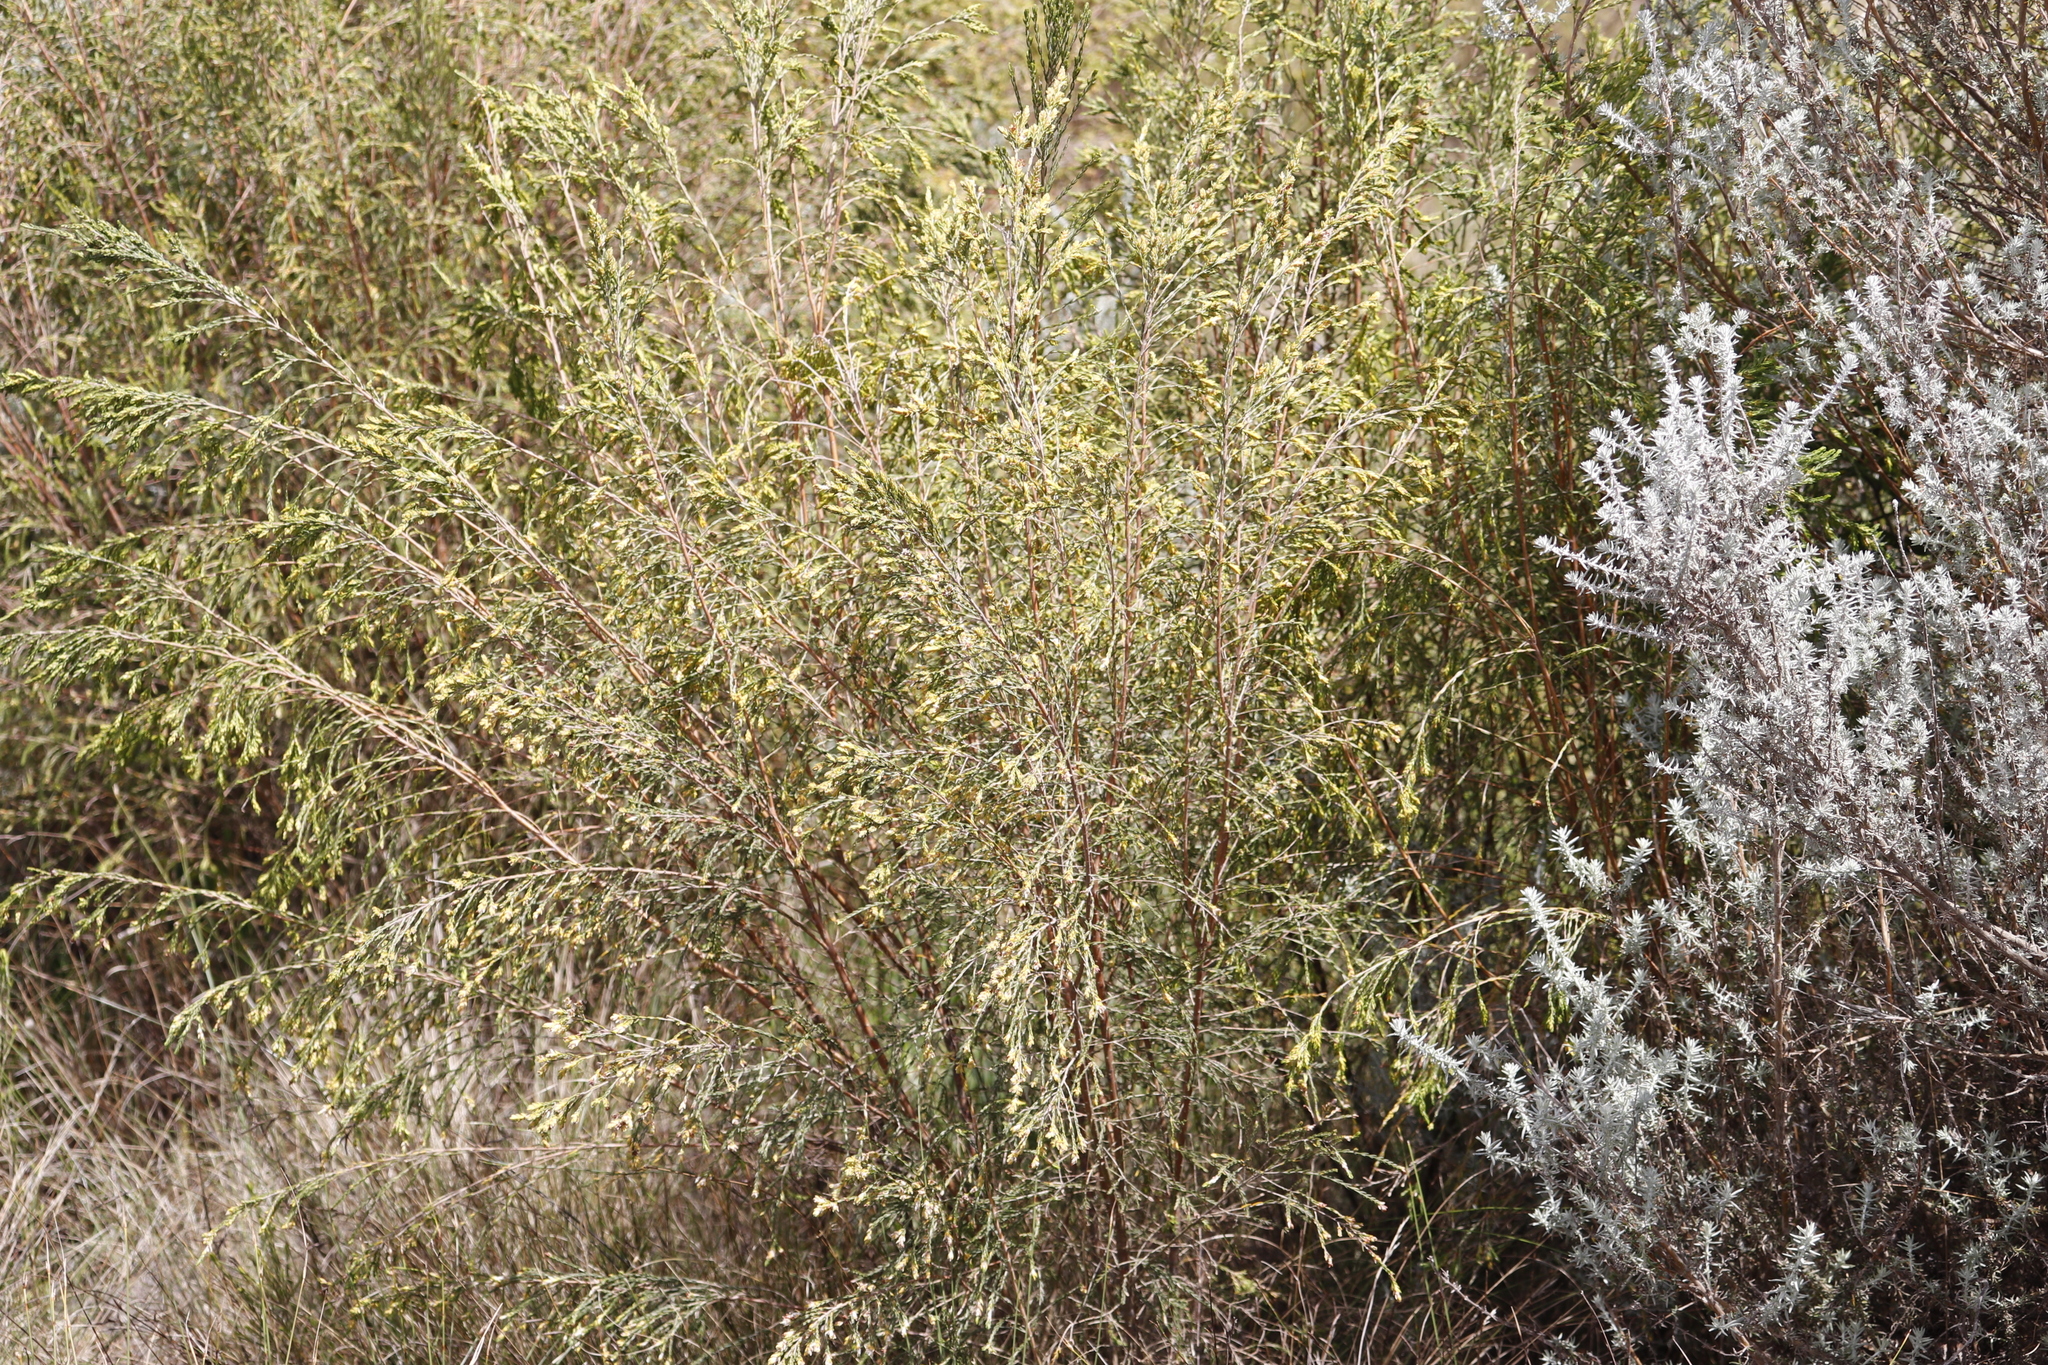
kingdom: Plantae
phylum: Tracheophyta
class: Magnoliopsida
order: Malvales
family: Thymelaeaceae
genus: Passerina
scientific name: Passerina corymbosa
